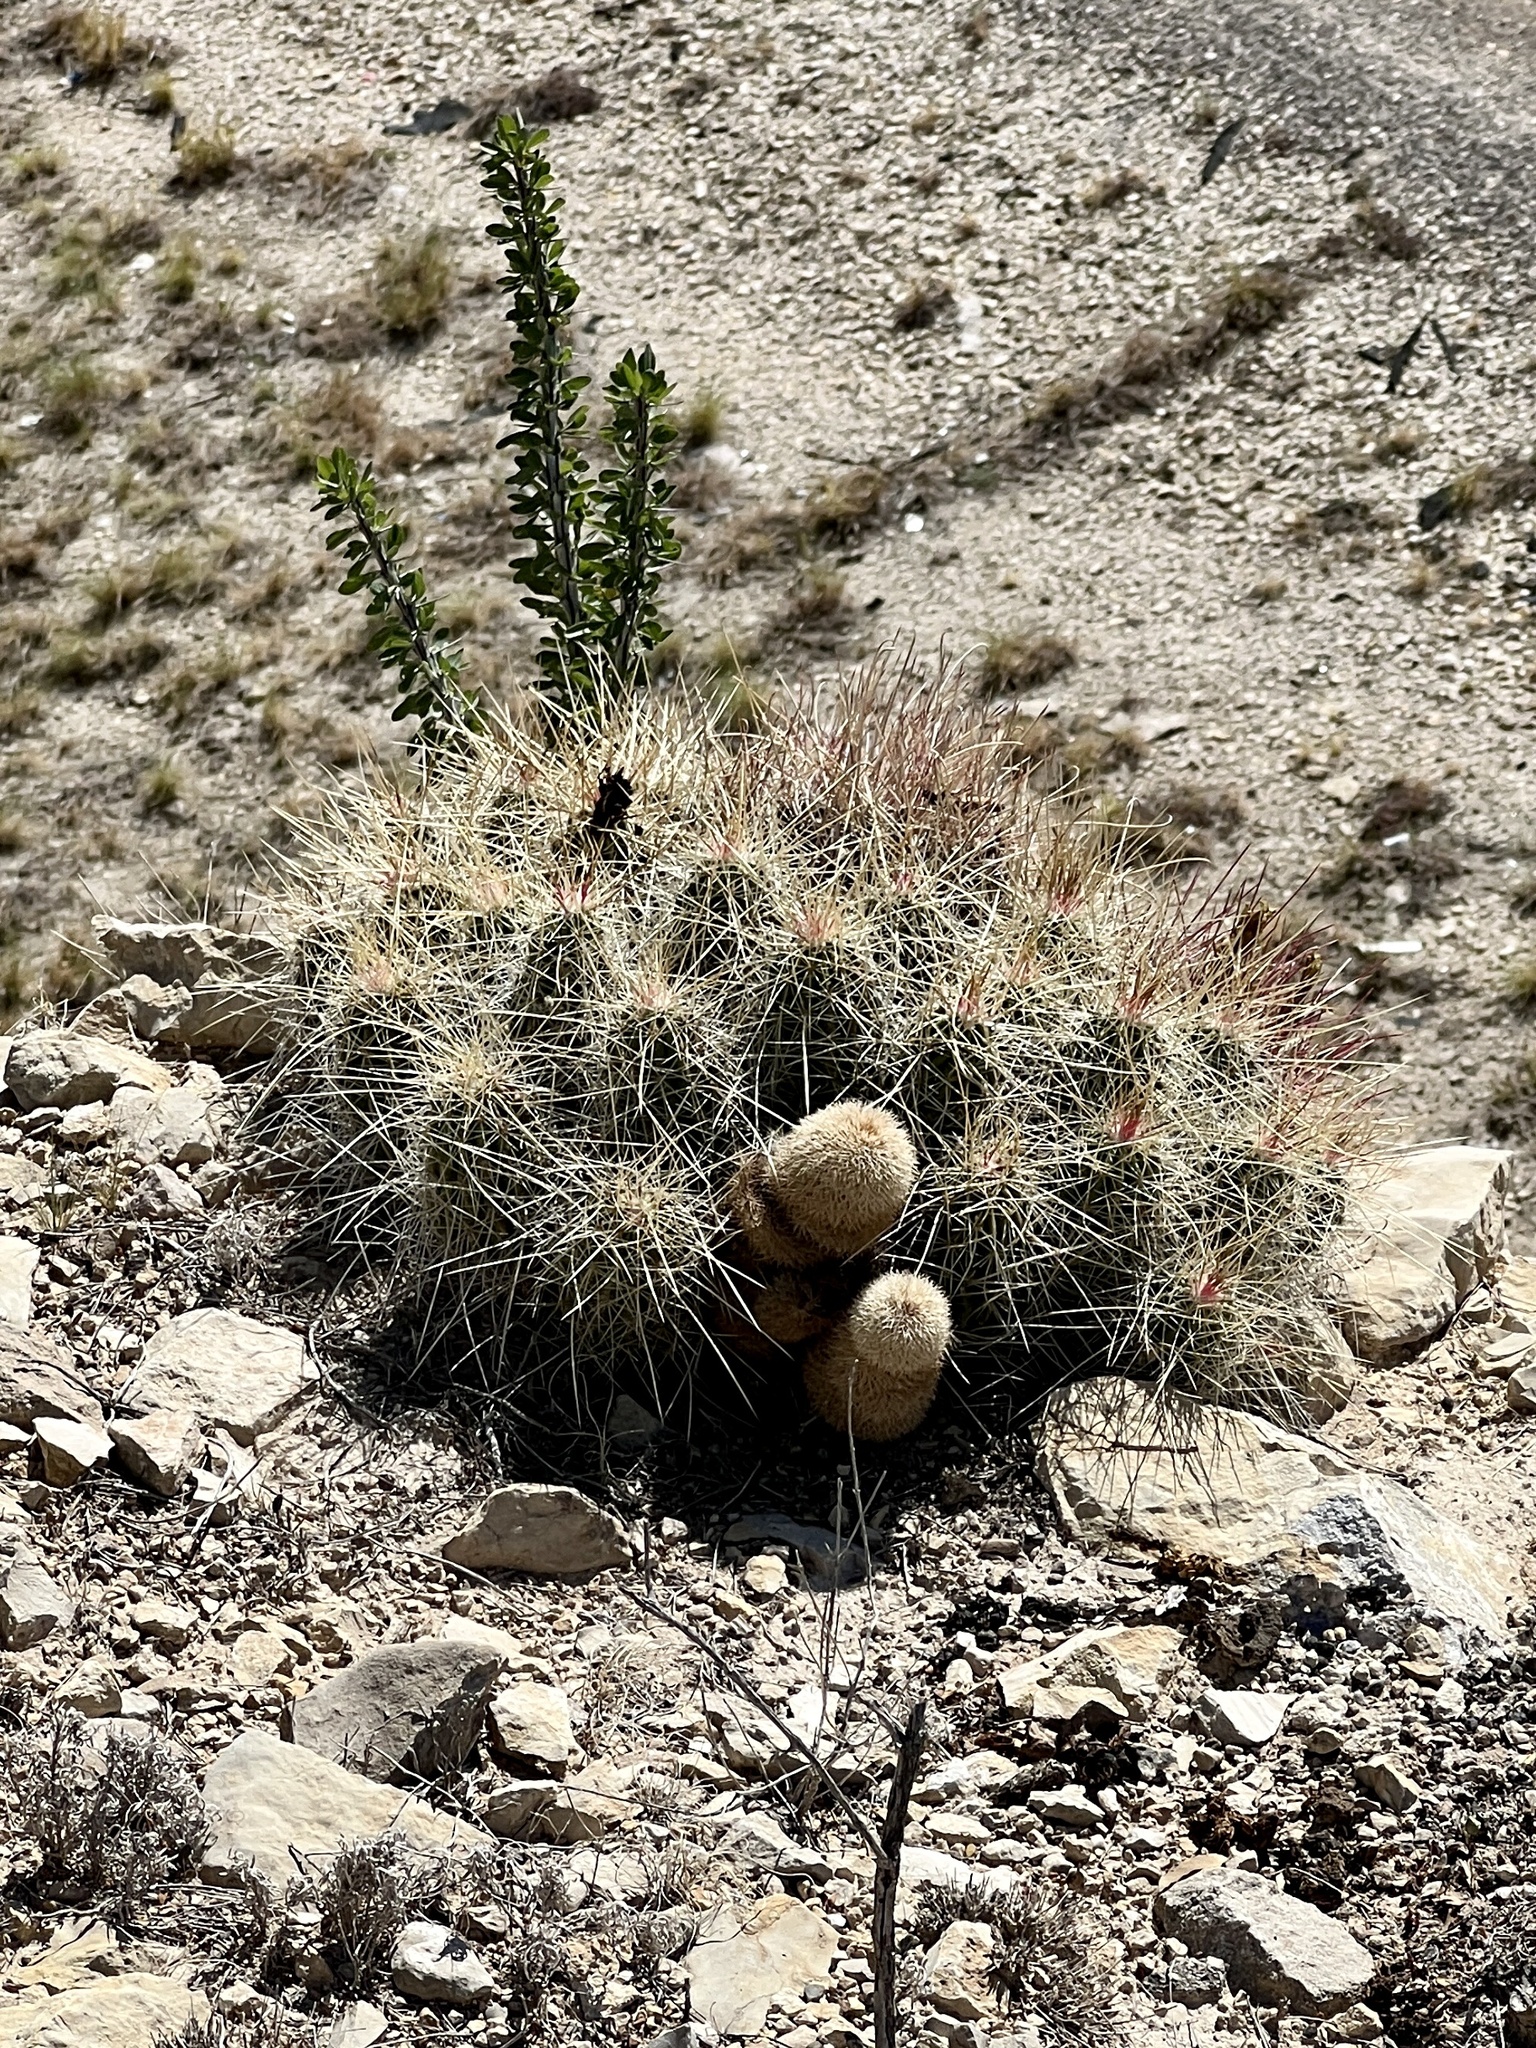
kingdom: Plantae
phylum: Tracheophyta
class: Magnoliopsida
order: Caryophyllales
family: Cactaceae
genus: Echinocereus
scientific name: Echinocereus stramineus
